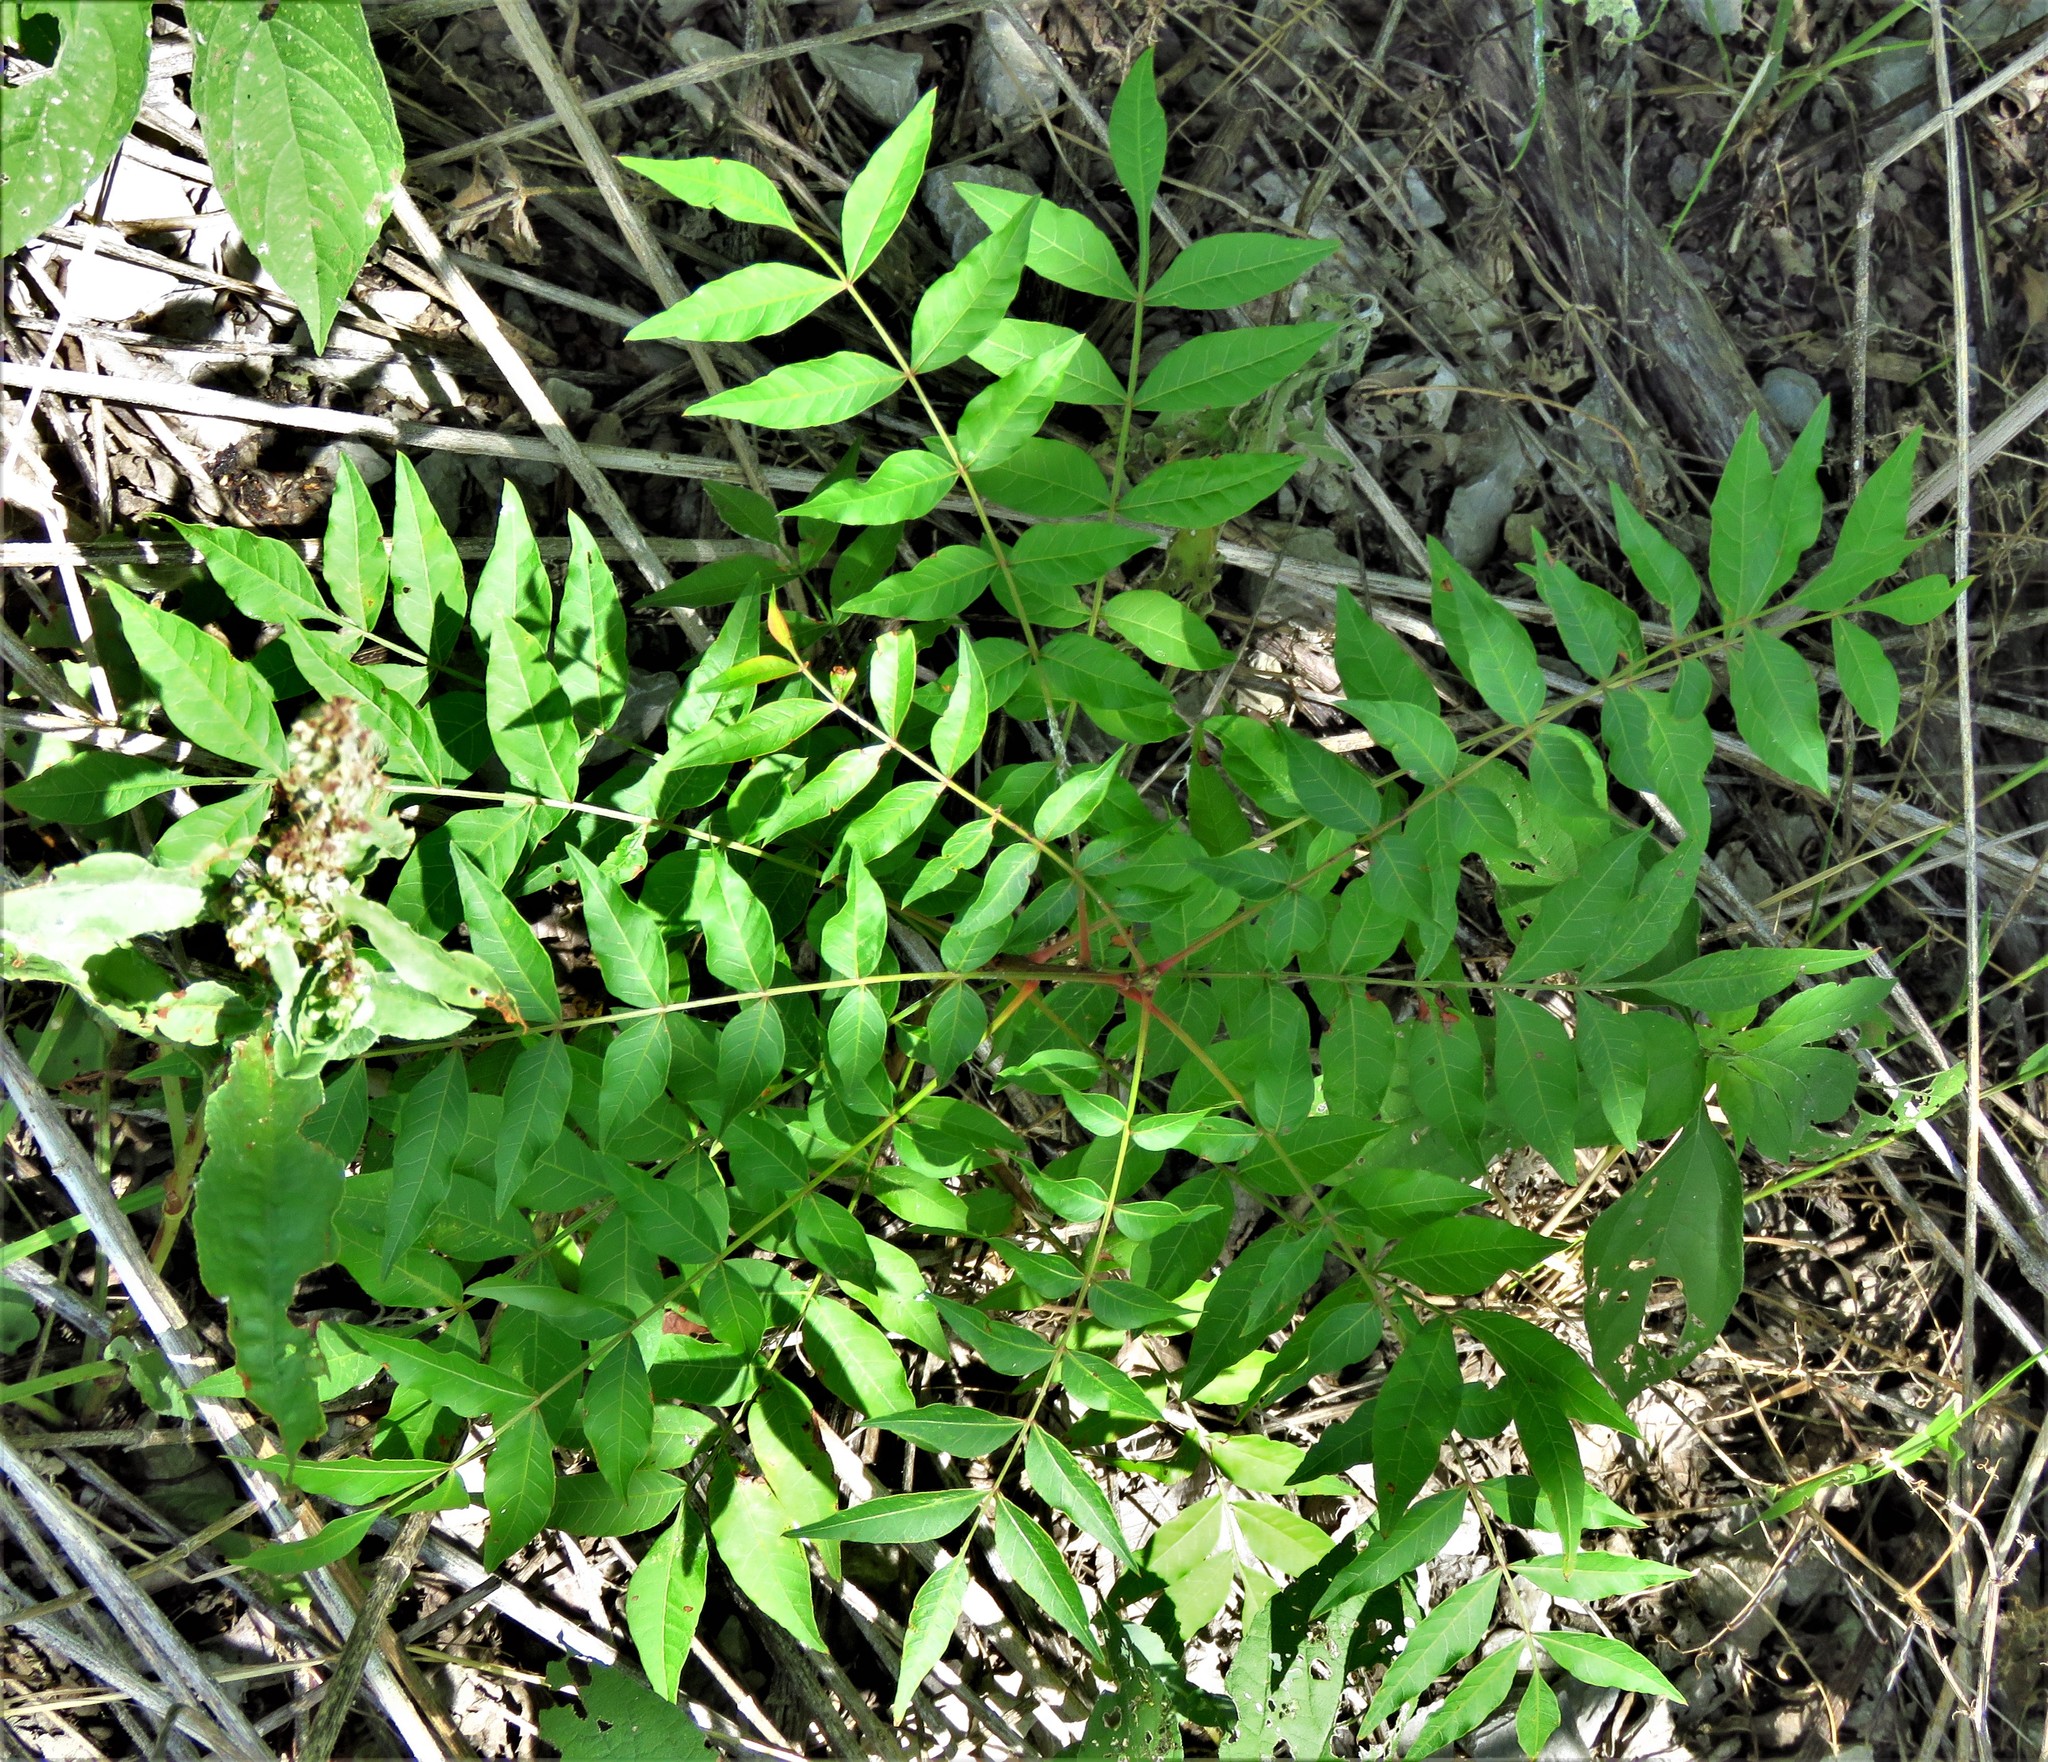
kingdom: Plantae
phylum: Tracheophyta
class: Magnoliopsida
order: Sapindales
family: Anacardiaceae
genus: Pistacia
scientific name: Pistacia chinensis
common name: Chinese pistache
